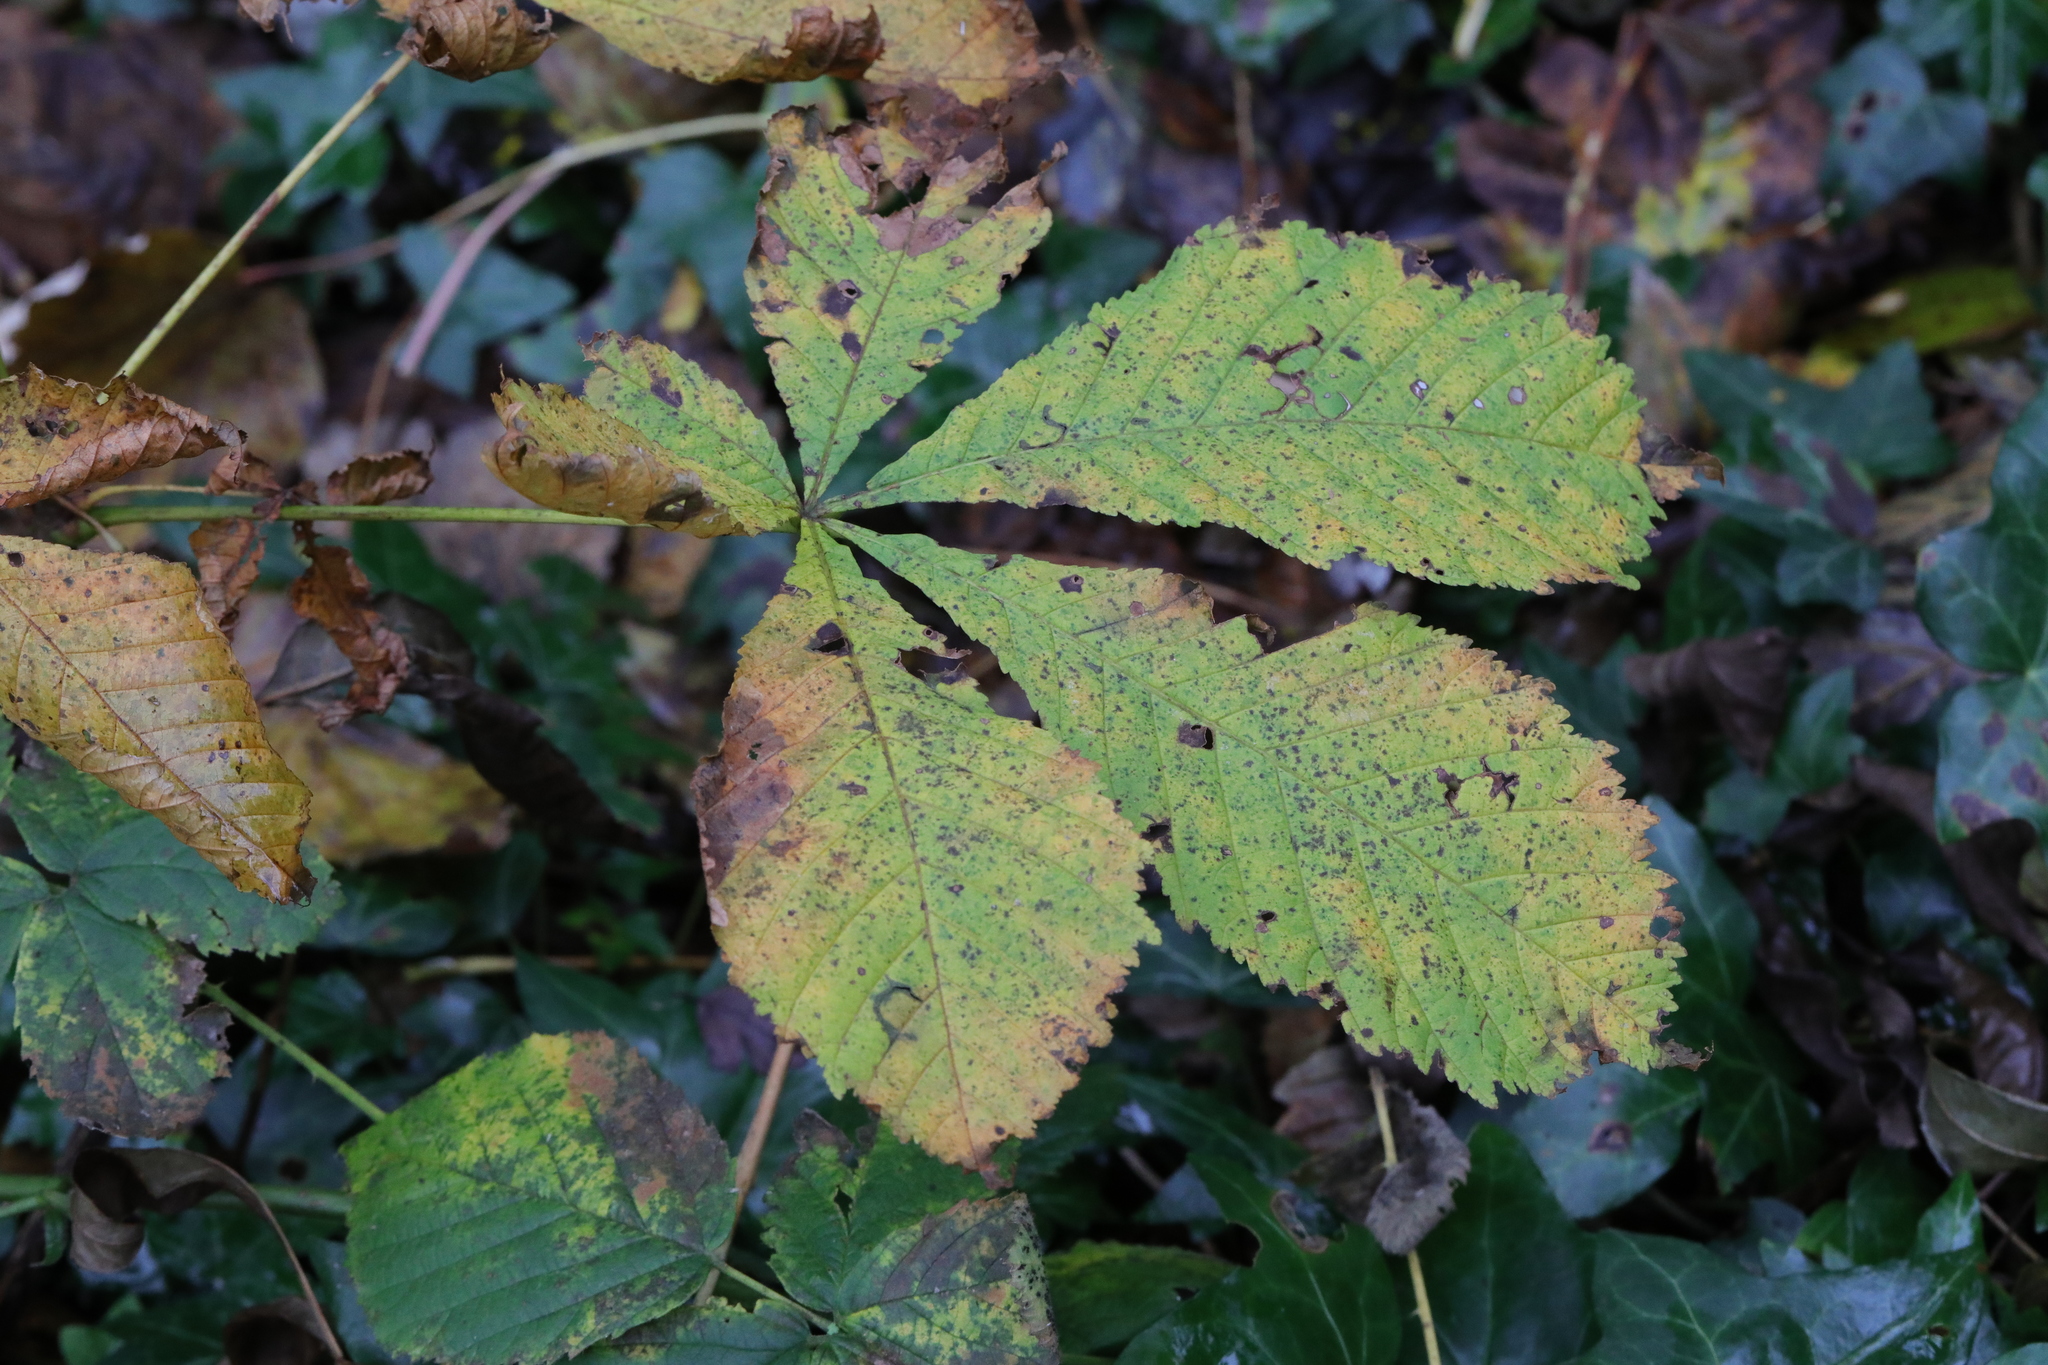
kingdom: Plantae
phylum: Tracheophyta
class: Magnoliopsida
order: Sapindales
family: Sapindaceae
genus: Aesculus
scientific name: Aesculus hippocastanum
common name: Horse-chestnut
